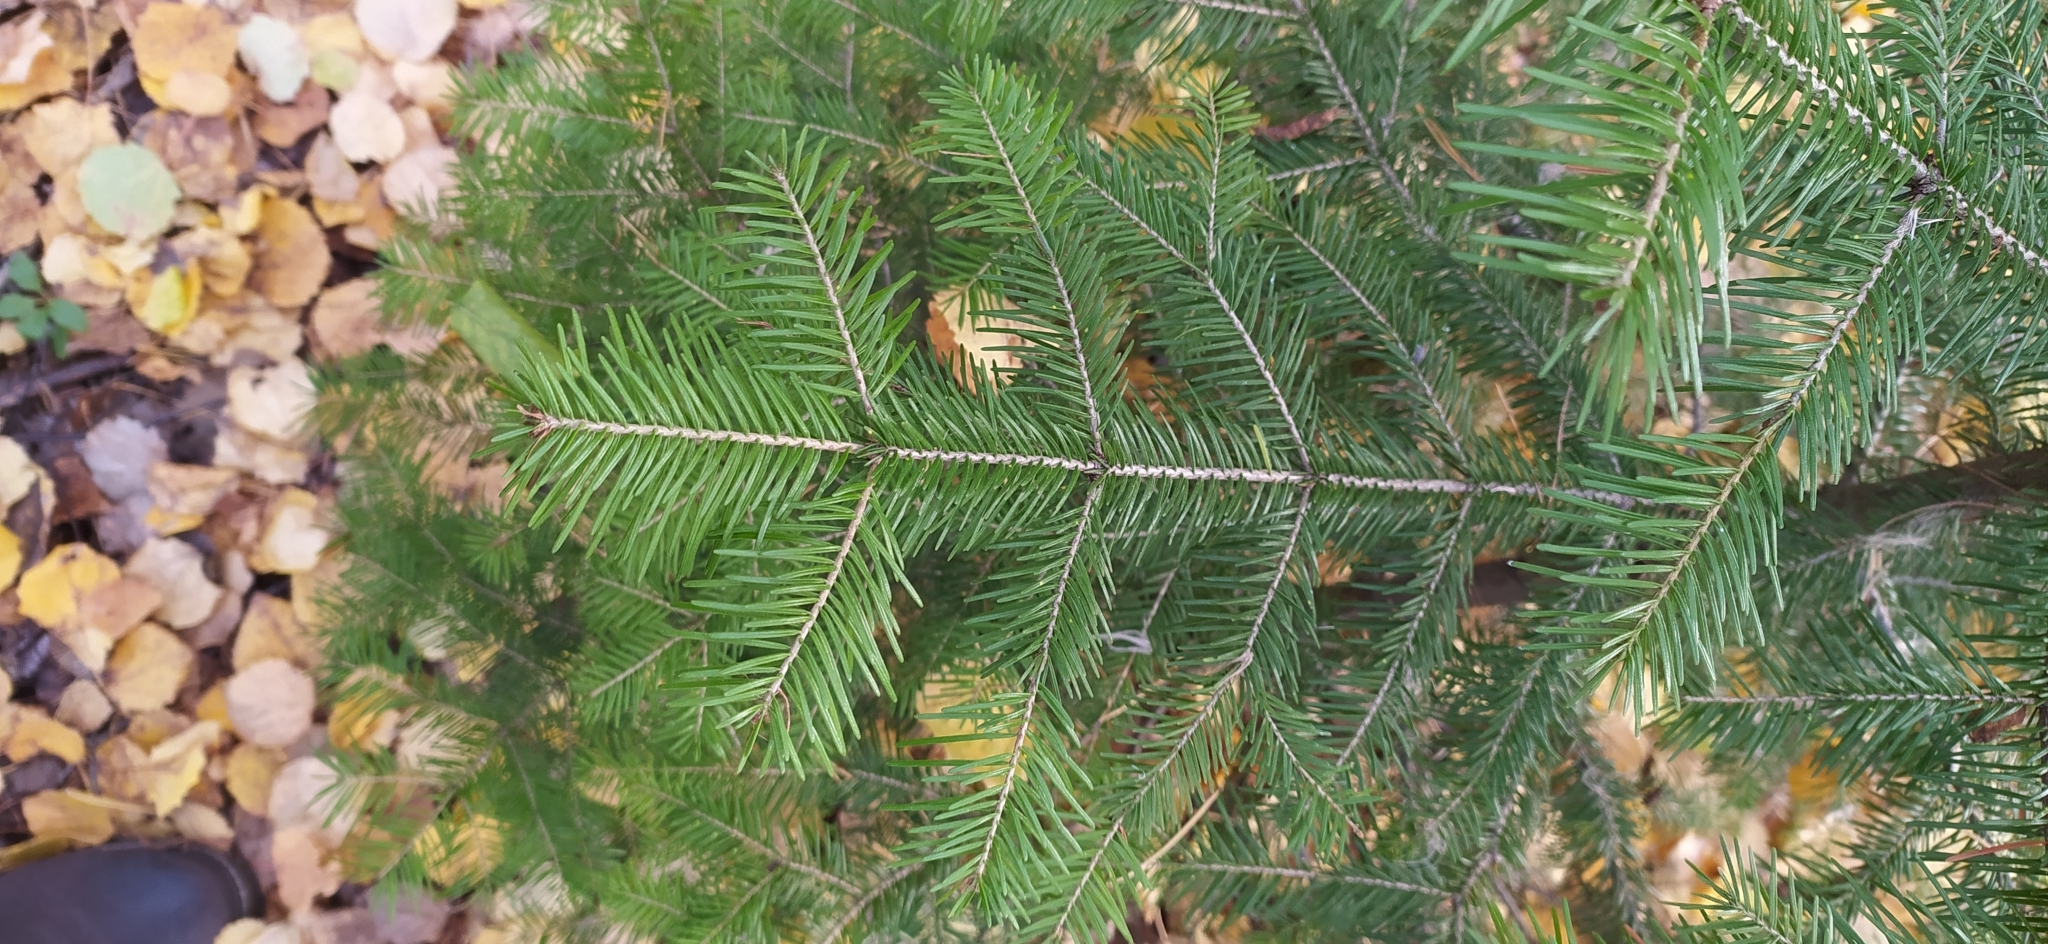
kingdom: Plantae
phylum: Tracheophyta
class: Pinopsida
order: Pinales
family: Pinaceae
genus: Abies
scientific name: Abies sibirica
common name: Siberian fir
